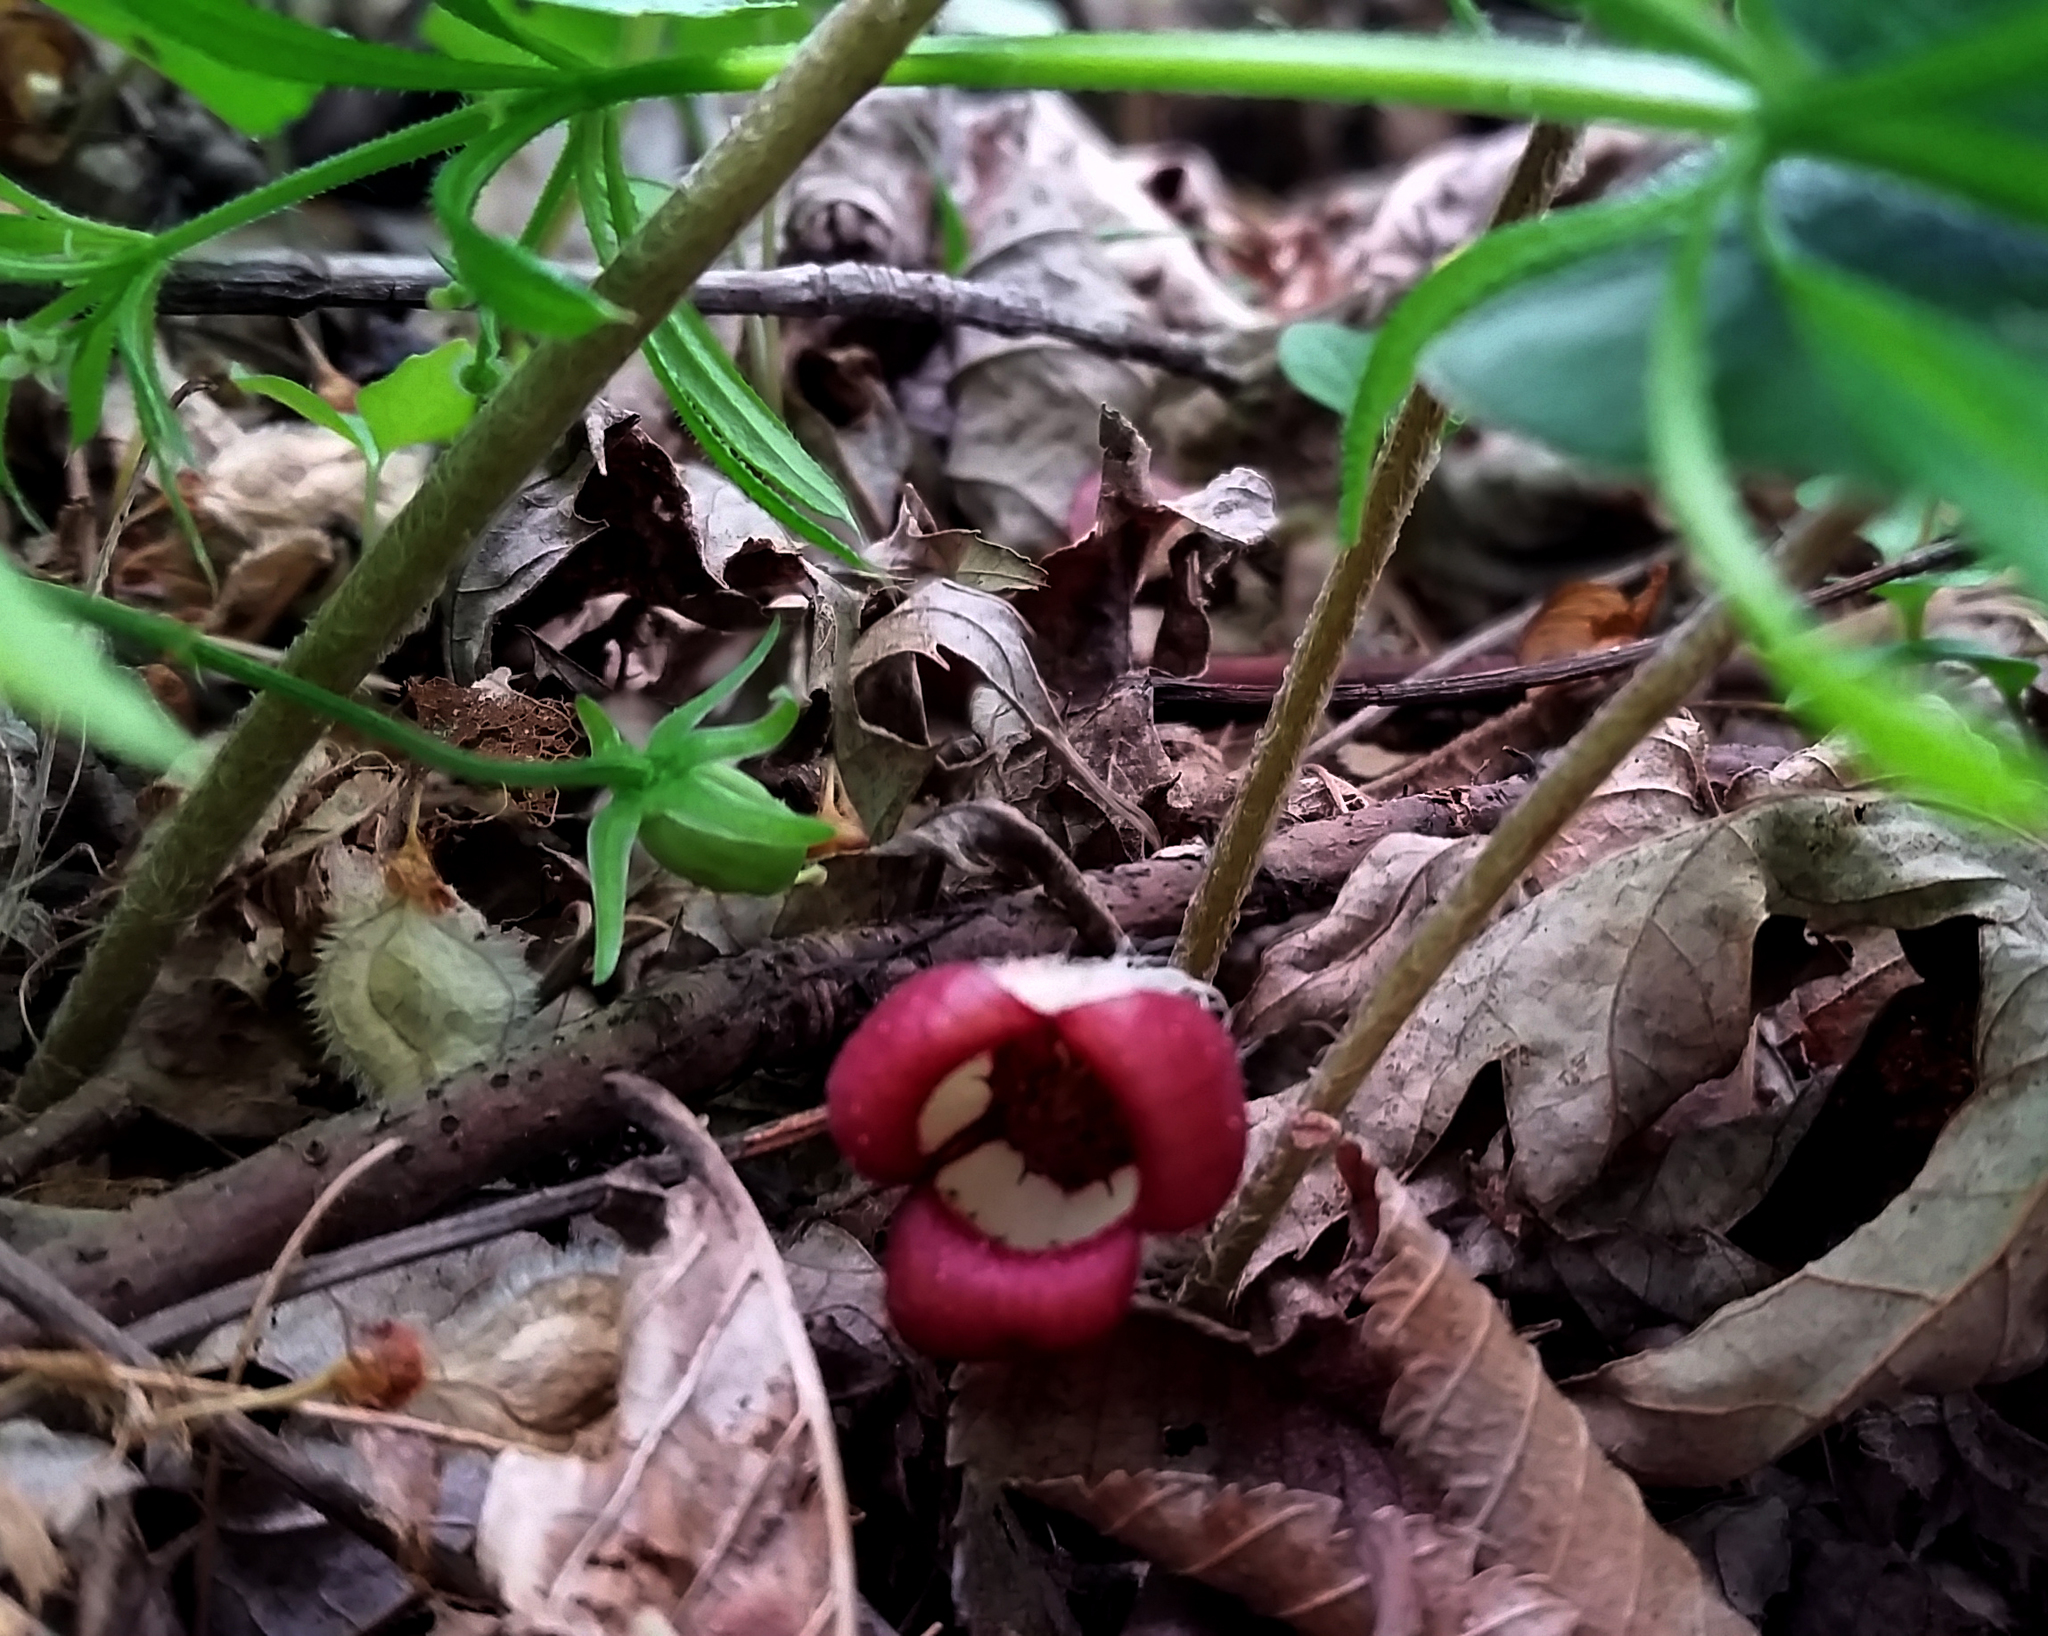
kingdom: Plantae
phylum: Tracheophyta
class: Magnoliopsida
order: Piperales
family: Aristolochiaceae
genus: Asarum
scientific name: Asarum canadense
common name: Wild ginger
